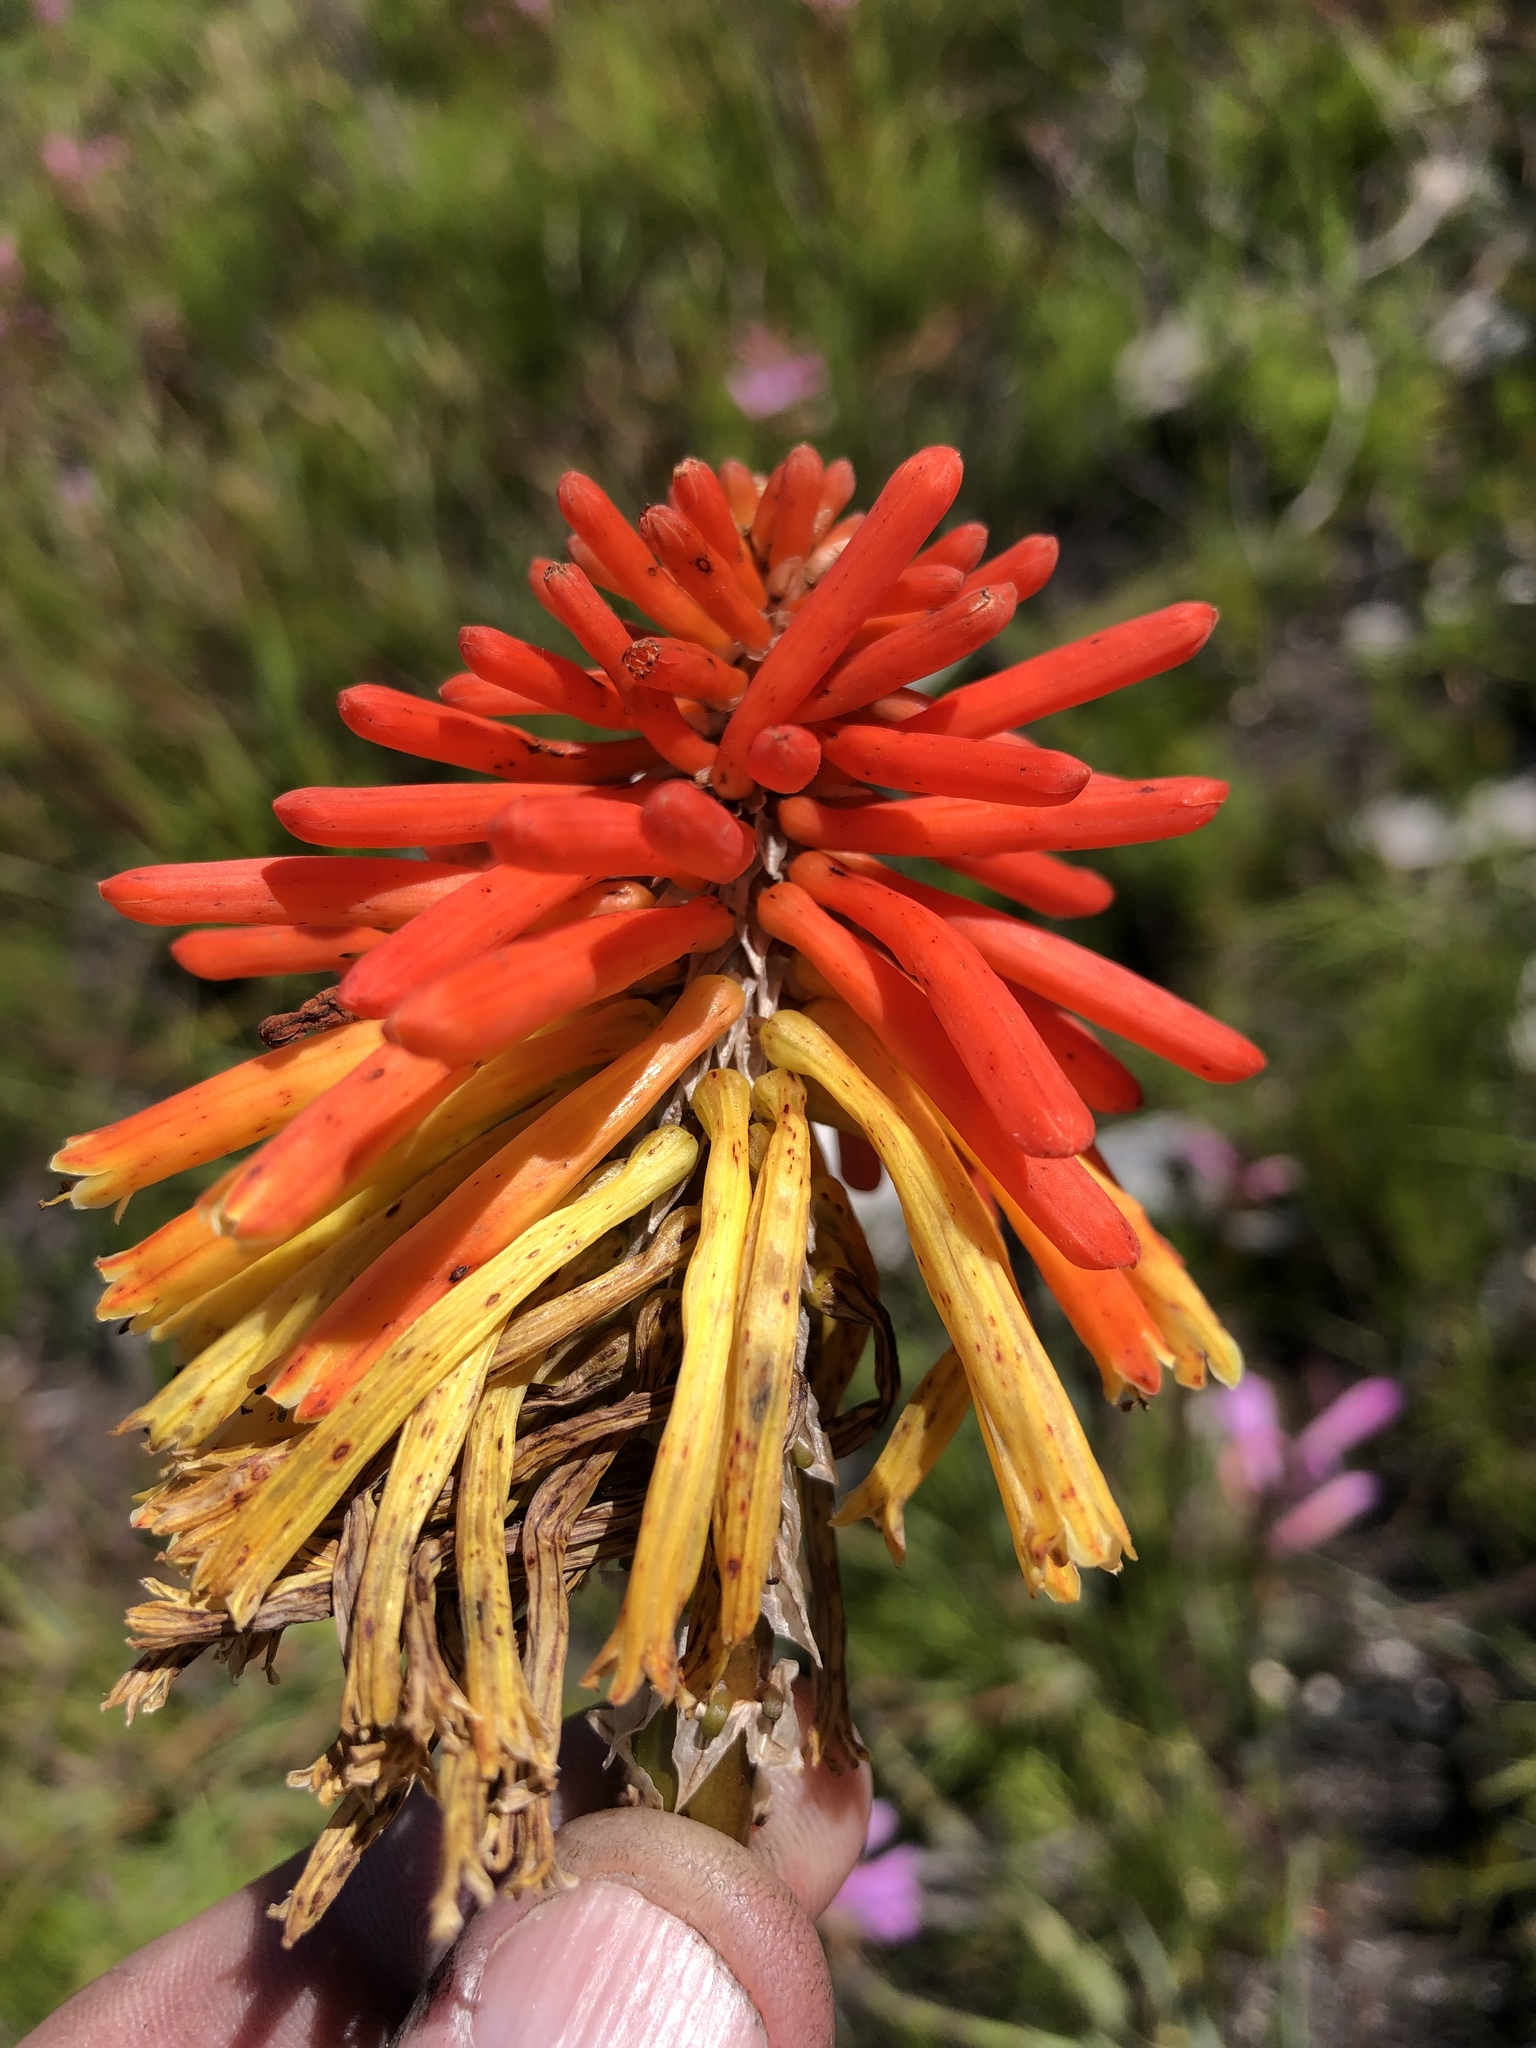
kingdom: Plantae
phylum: Tracheophyta
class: Liliopsida
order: Asparagales
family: Asphodelaceae
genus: Kniphofia
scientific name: Kniphofia uvaria
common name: Red-hot-poker
